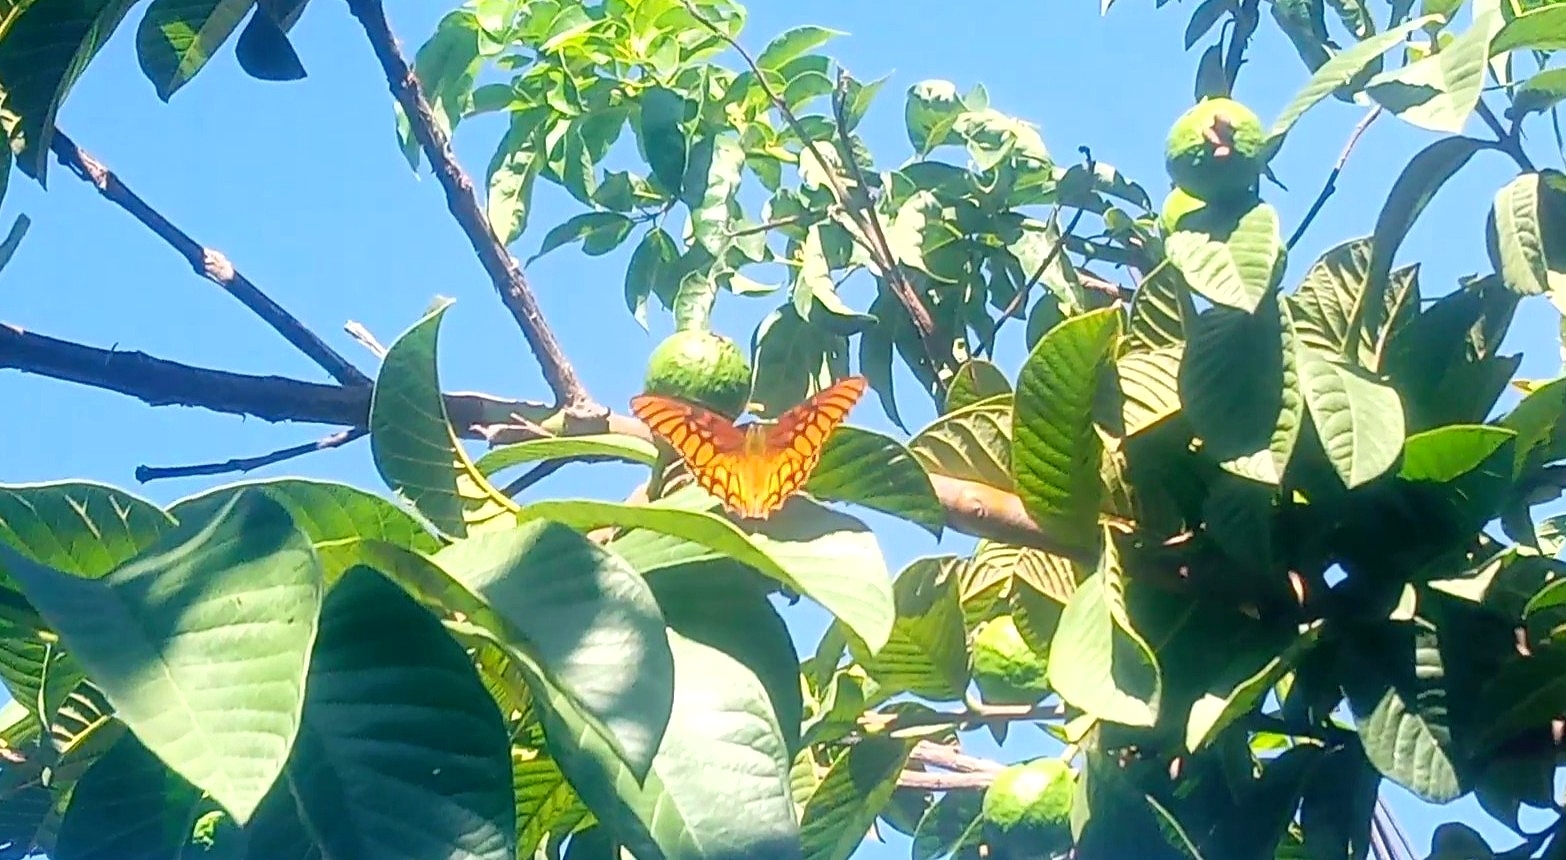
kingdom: Animalia
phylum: Arthropoda
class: Insecta
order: Lepidoptera
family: Nymphalidae
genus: Dione
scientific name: Dione moneta
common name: Mexican silverspot
